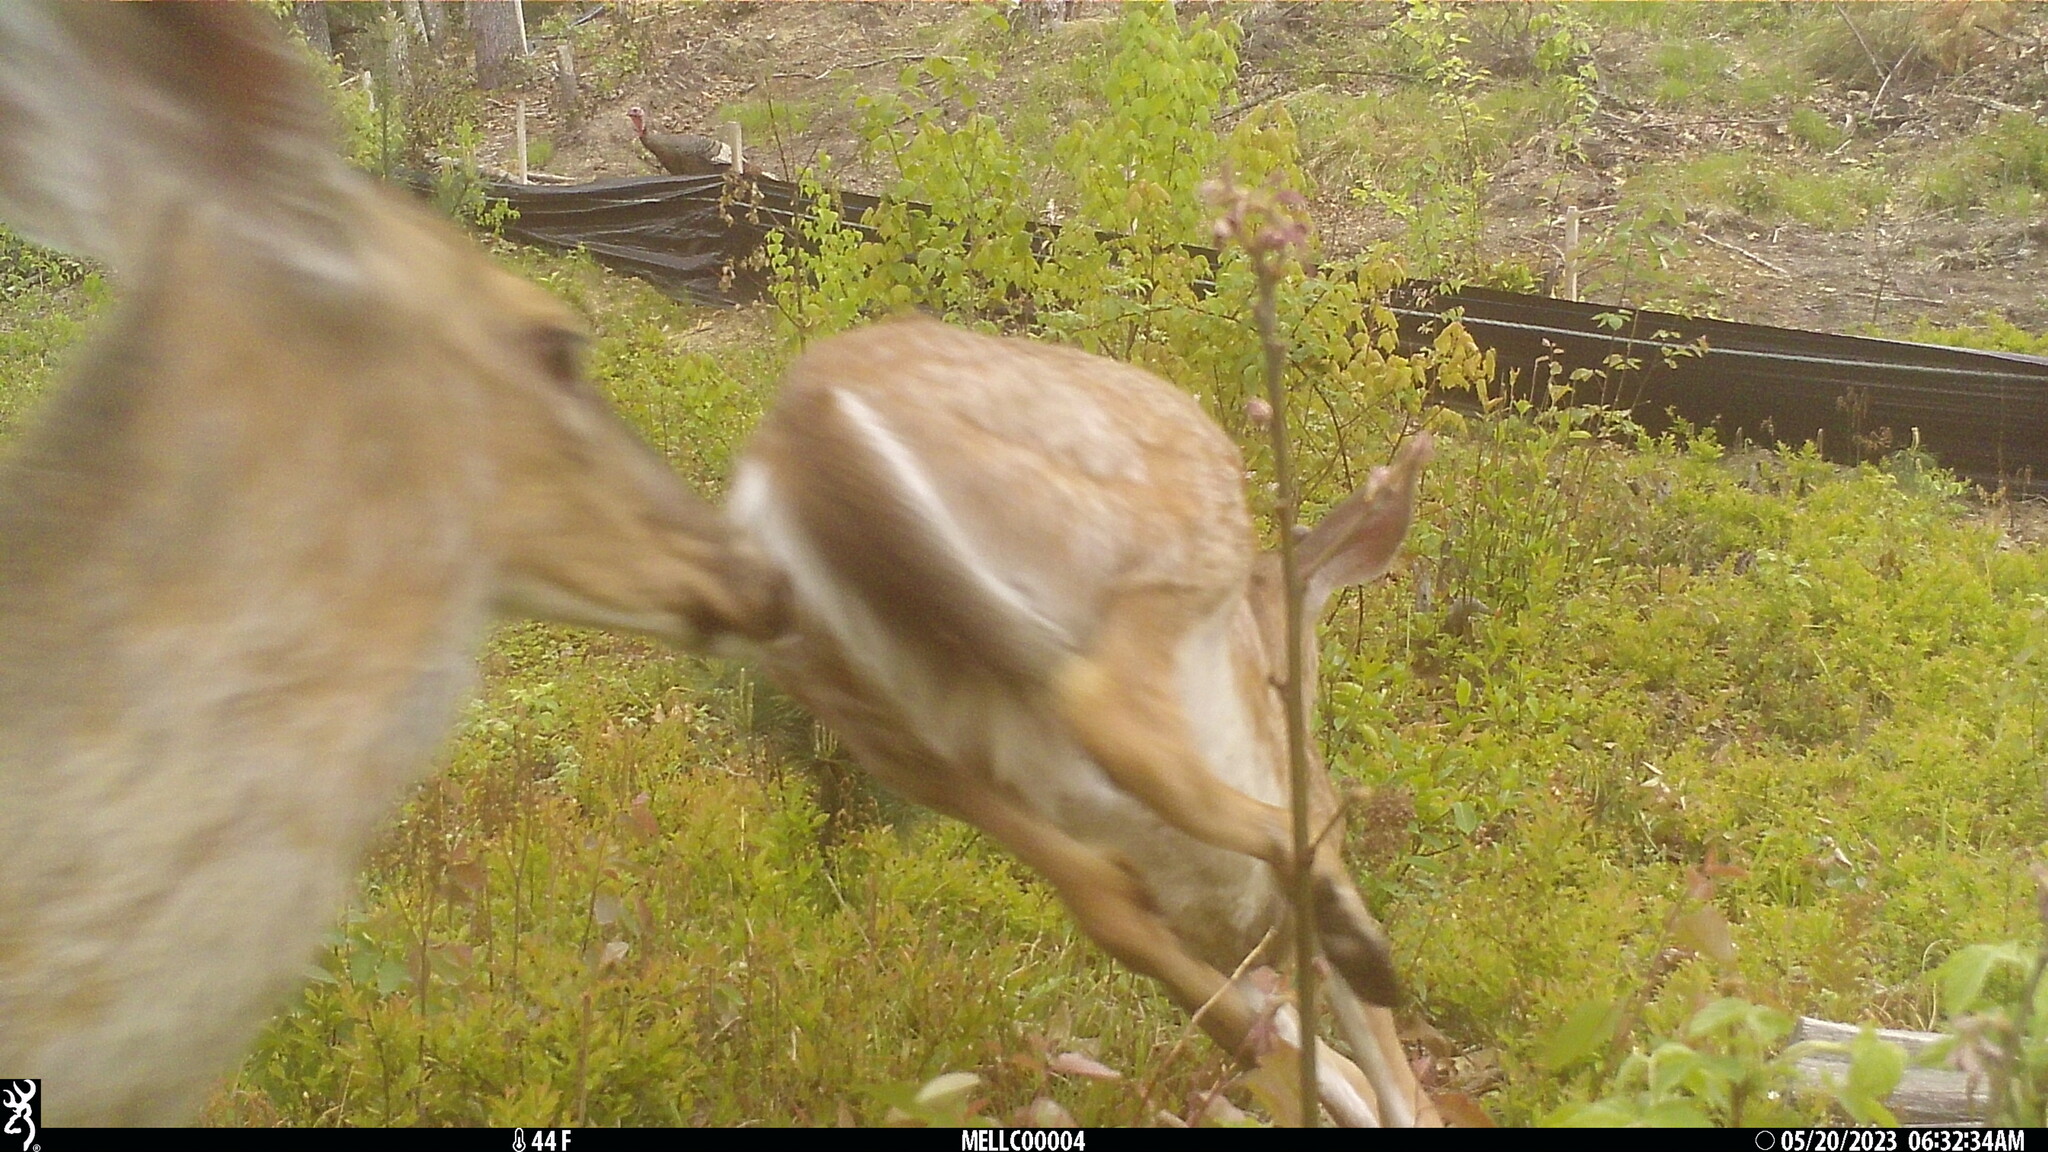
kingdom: Animalia
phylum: Chordata
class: Mammalia
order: Artiodactyla
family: Cervidae
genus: Odocoileus
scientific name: Odocoileus virginianus
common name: White-tailed deer
